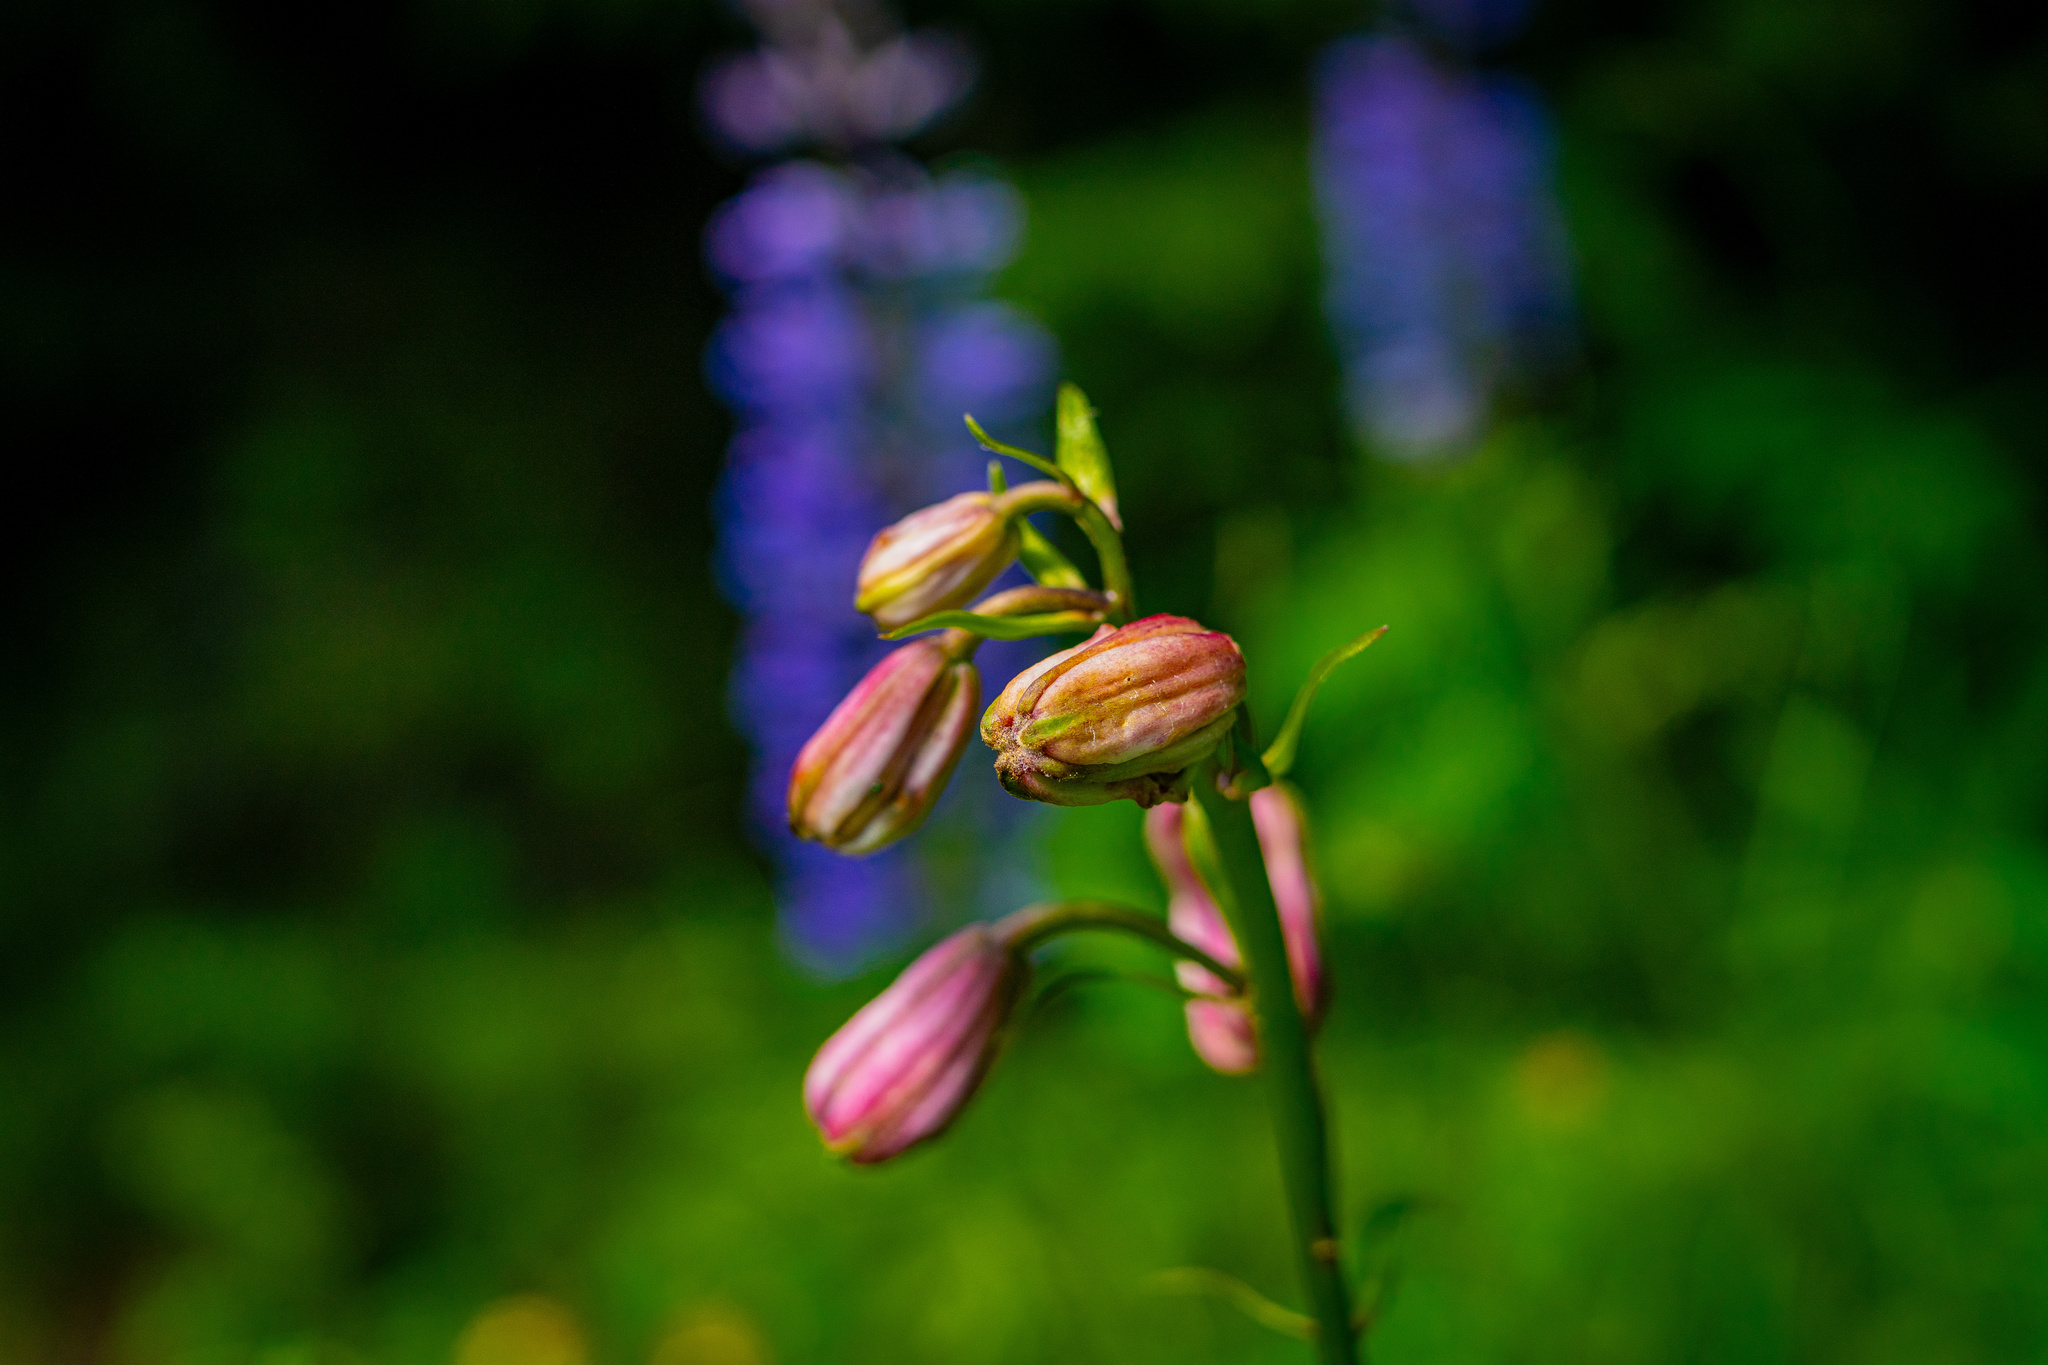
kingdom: Plantae
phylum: Tracheophyta
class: Liliopsida
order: Liliales
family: Liliaceae
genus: Lilium
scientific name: Lilium martagon
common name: Martagon lily
